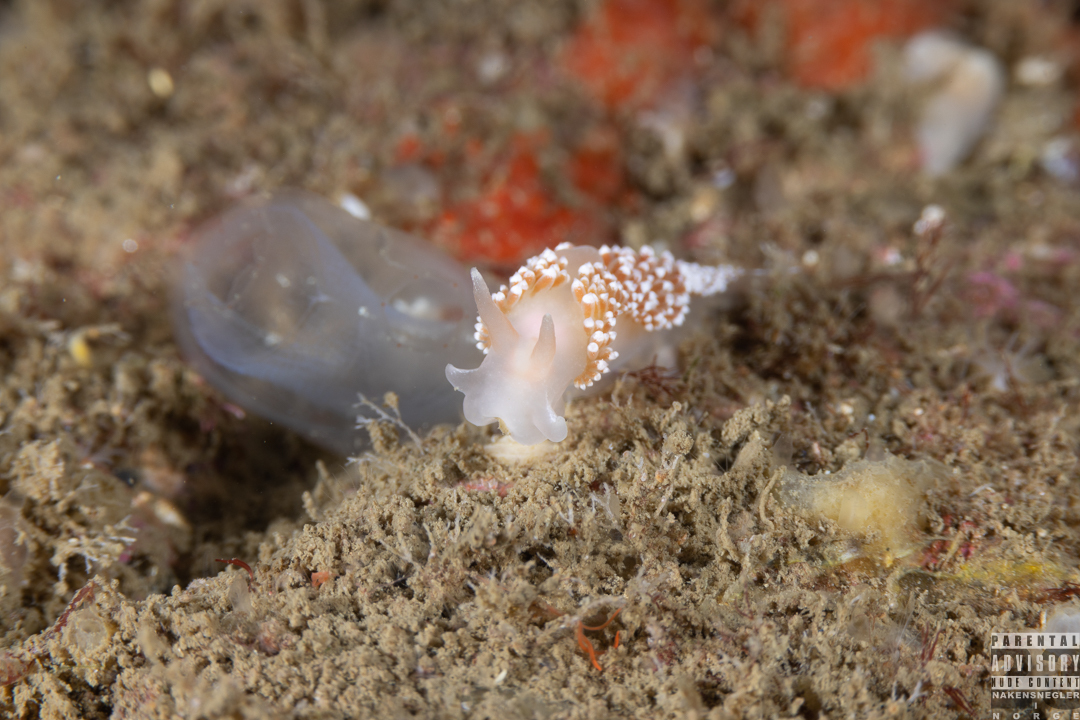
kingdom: Animalia
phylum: Mollusca
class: Gastropoda
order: Nudibranchia
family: Coryphellidae
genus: Coryphella
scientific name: Coryphella verrucosa
